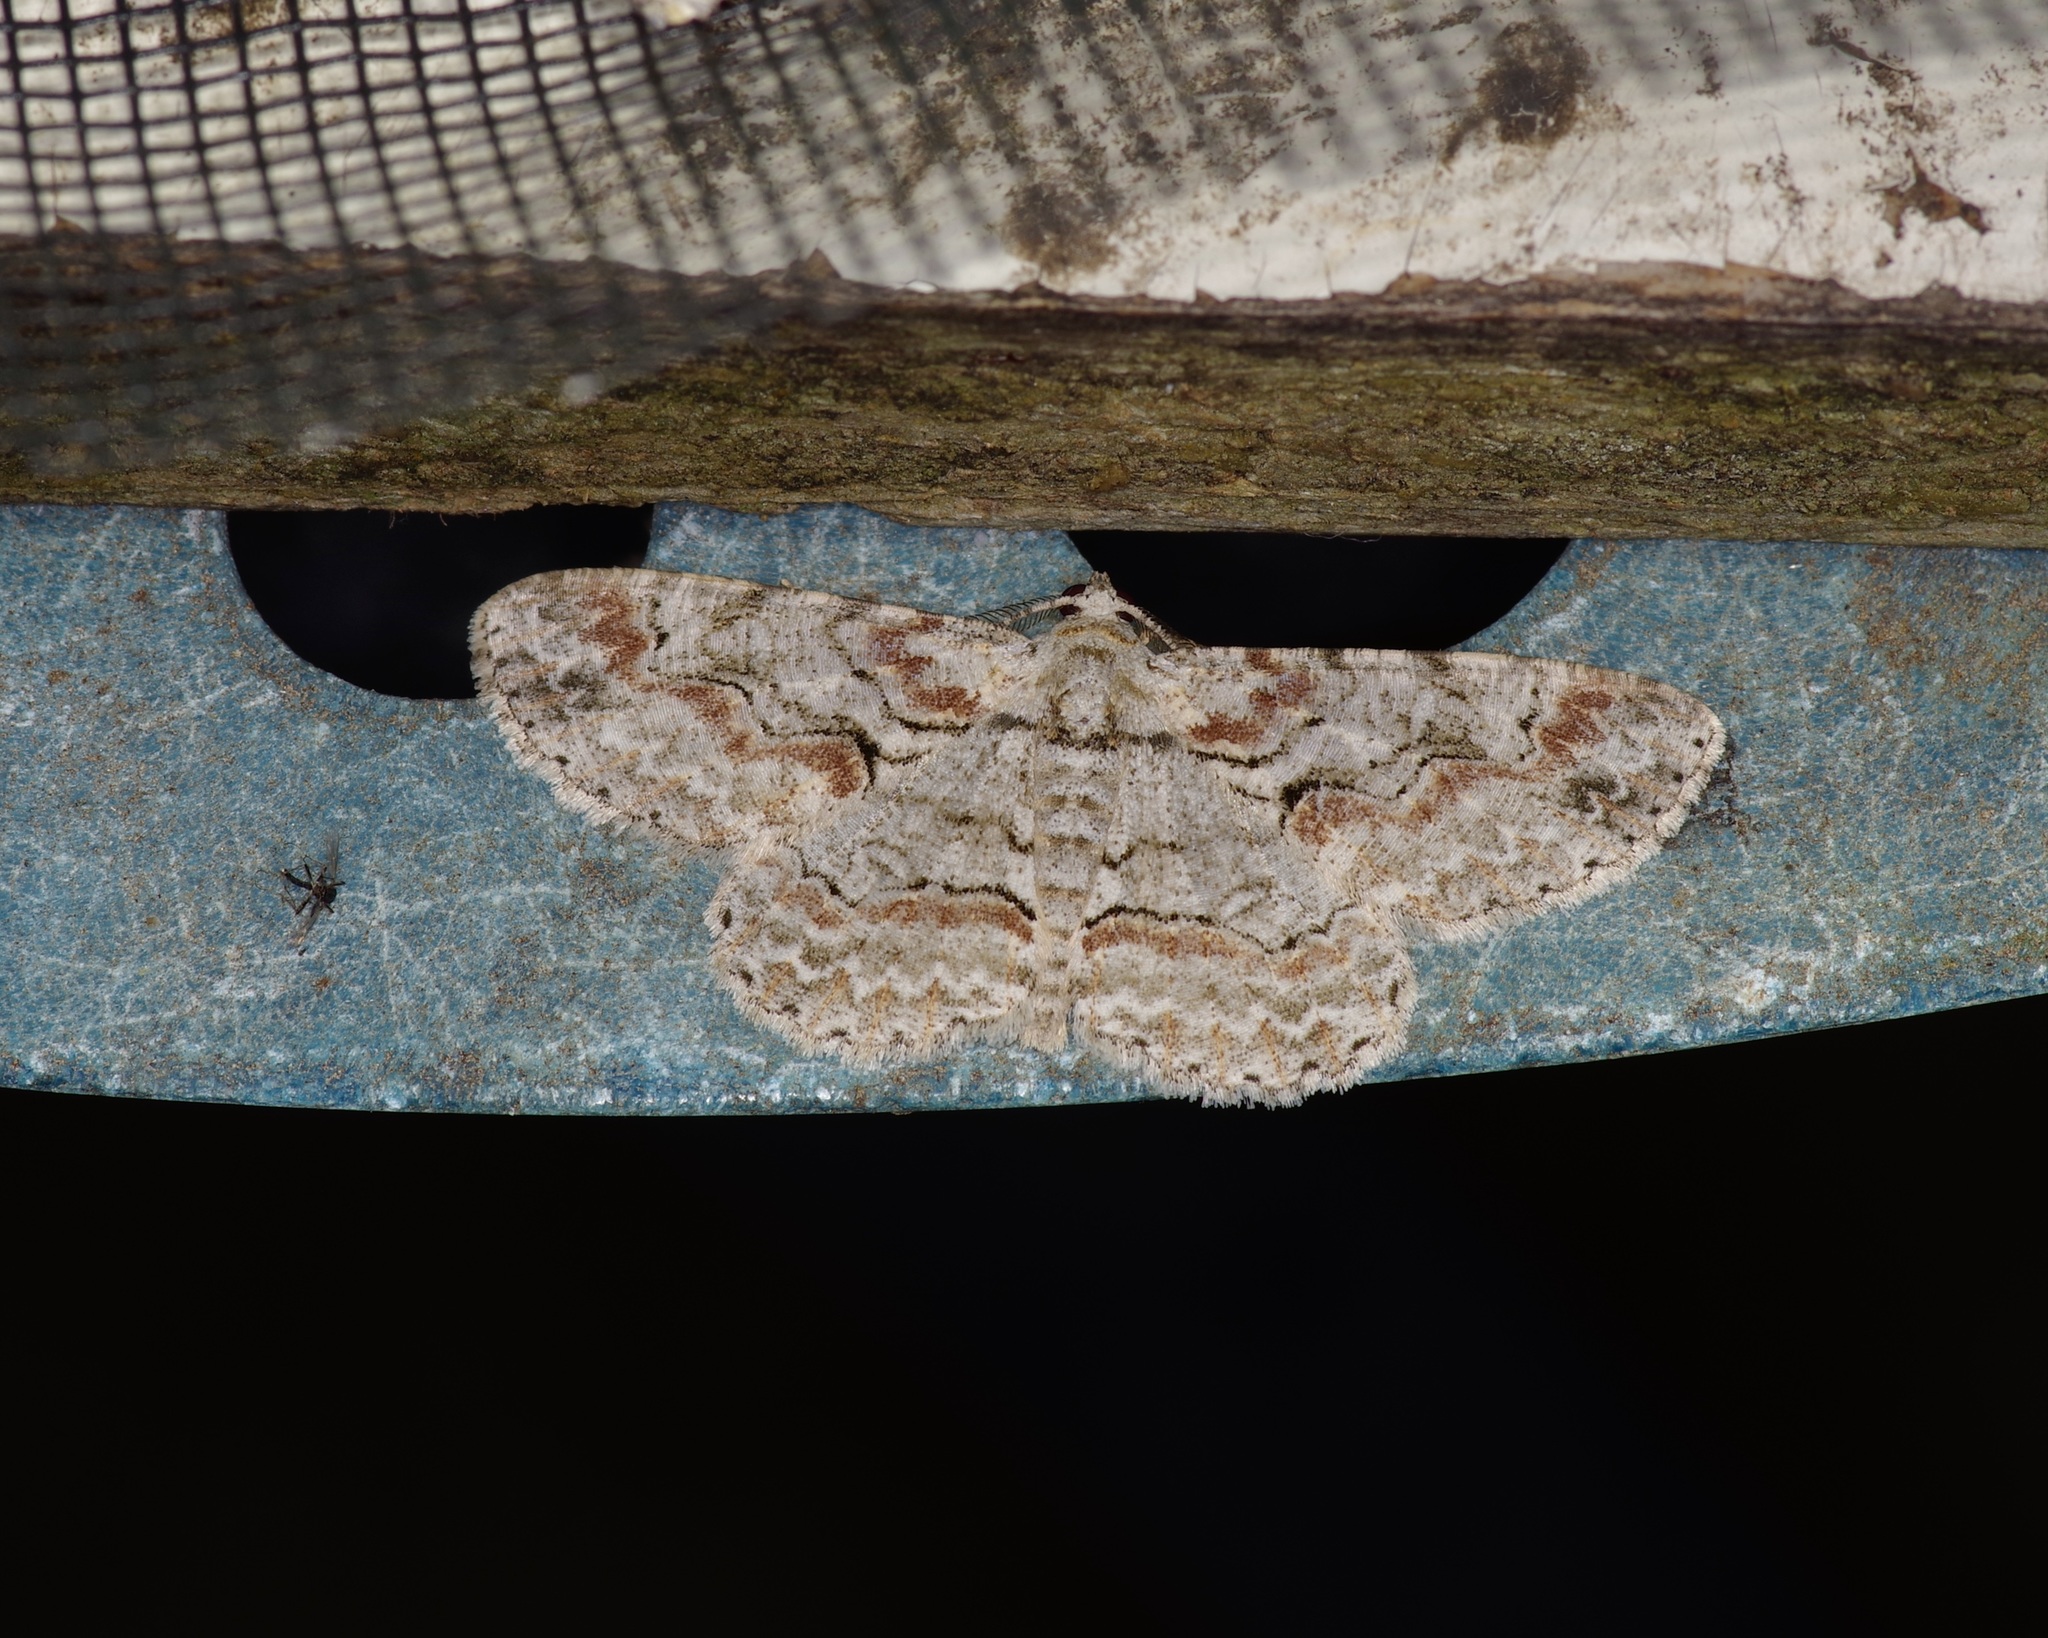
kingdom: Animalia
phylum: Arthropoda
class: Insecta
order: Lepidoptera
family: Geometridae
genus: Iridopsis
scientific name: Iridopsis defectaria
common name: Brown-shaded gray
